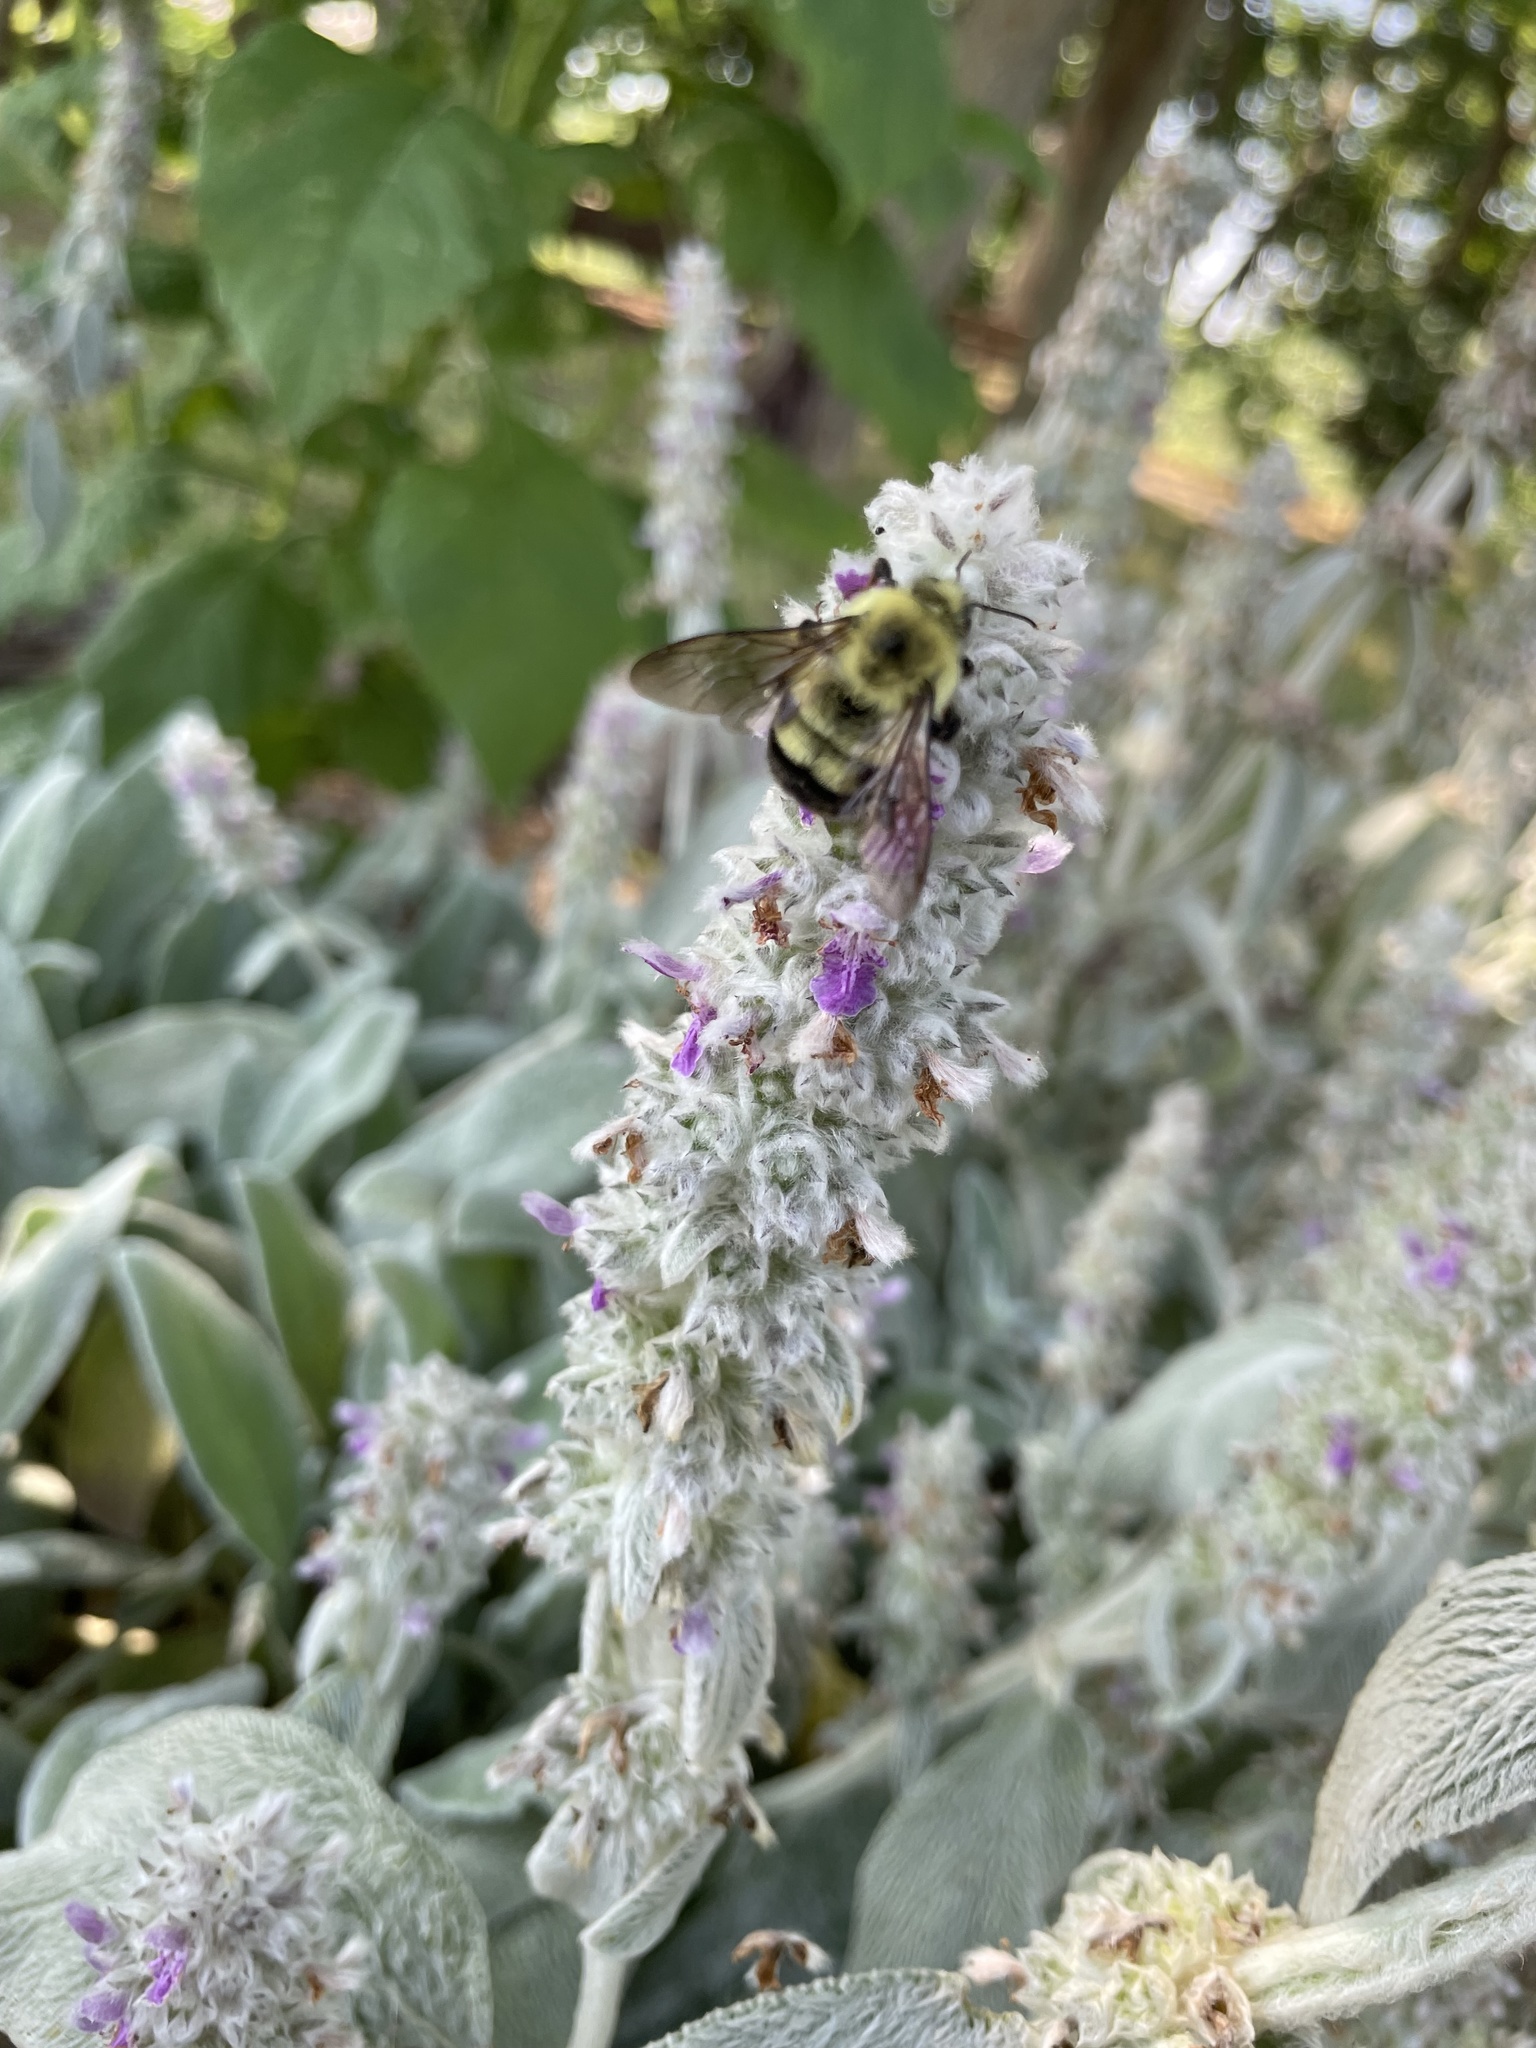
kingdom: Animalia
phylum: Arthropoda
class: Insecta
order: Hymenoptera
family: Apidae
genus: Bombus
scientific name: Bombus bimaculatus
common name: Two-spotted bumble bee
